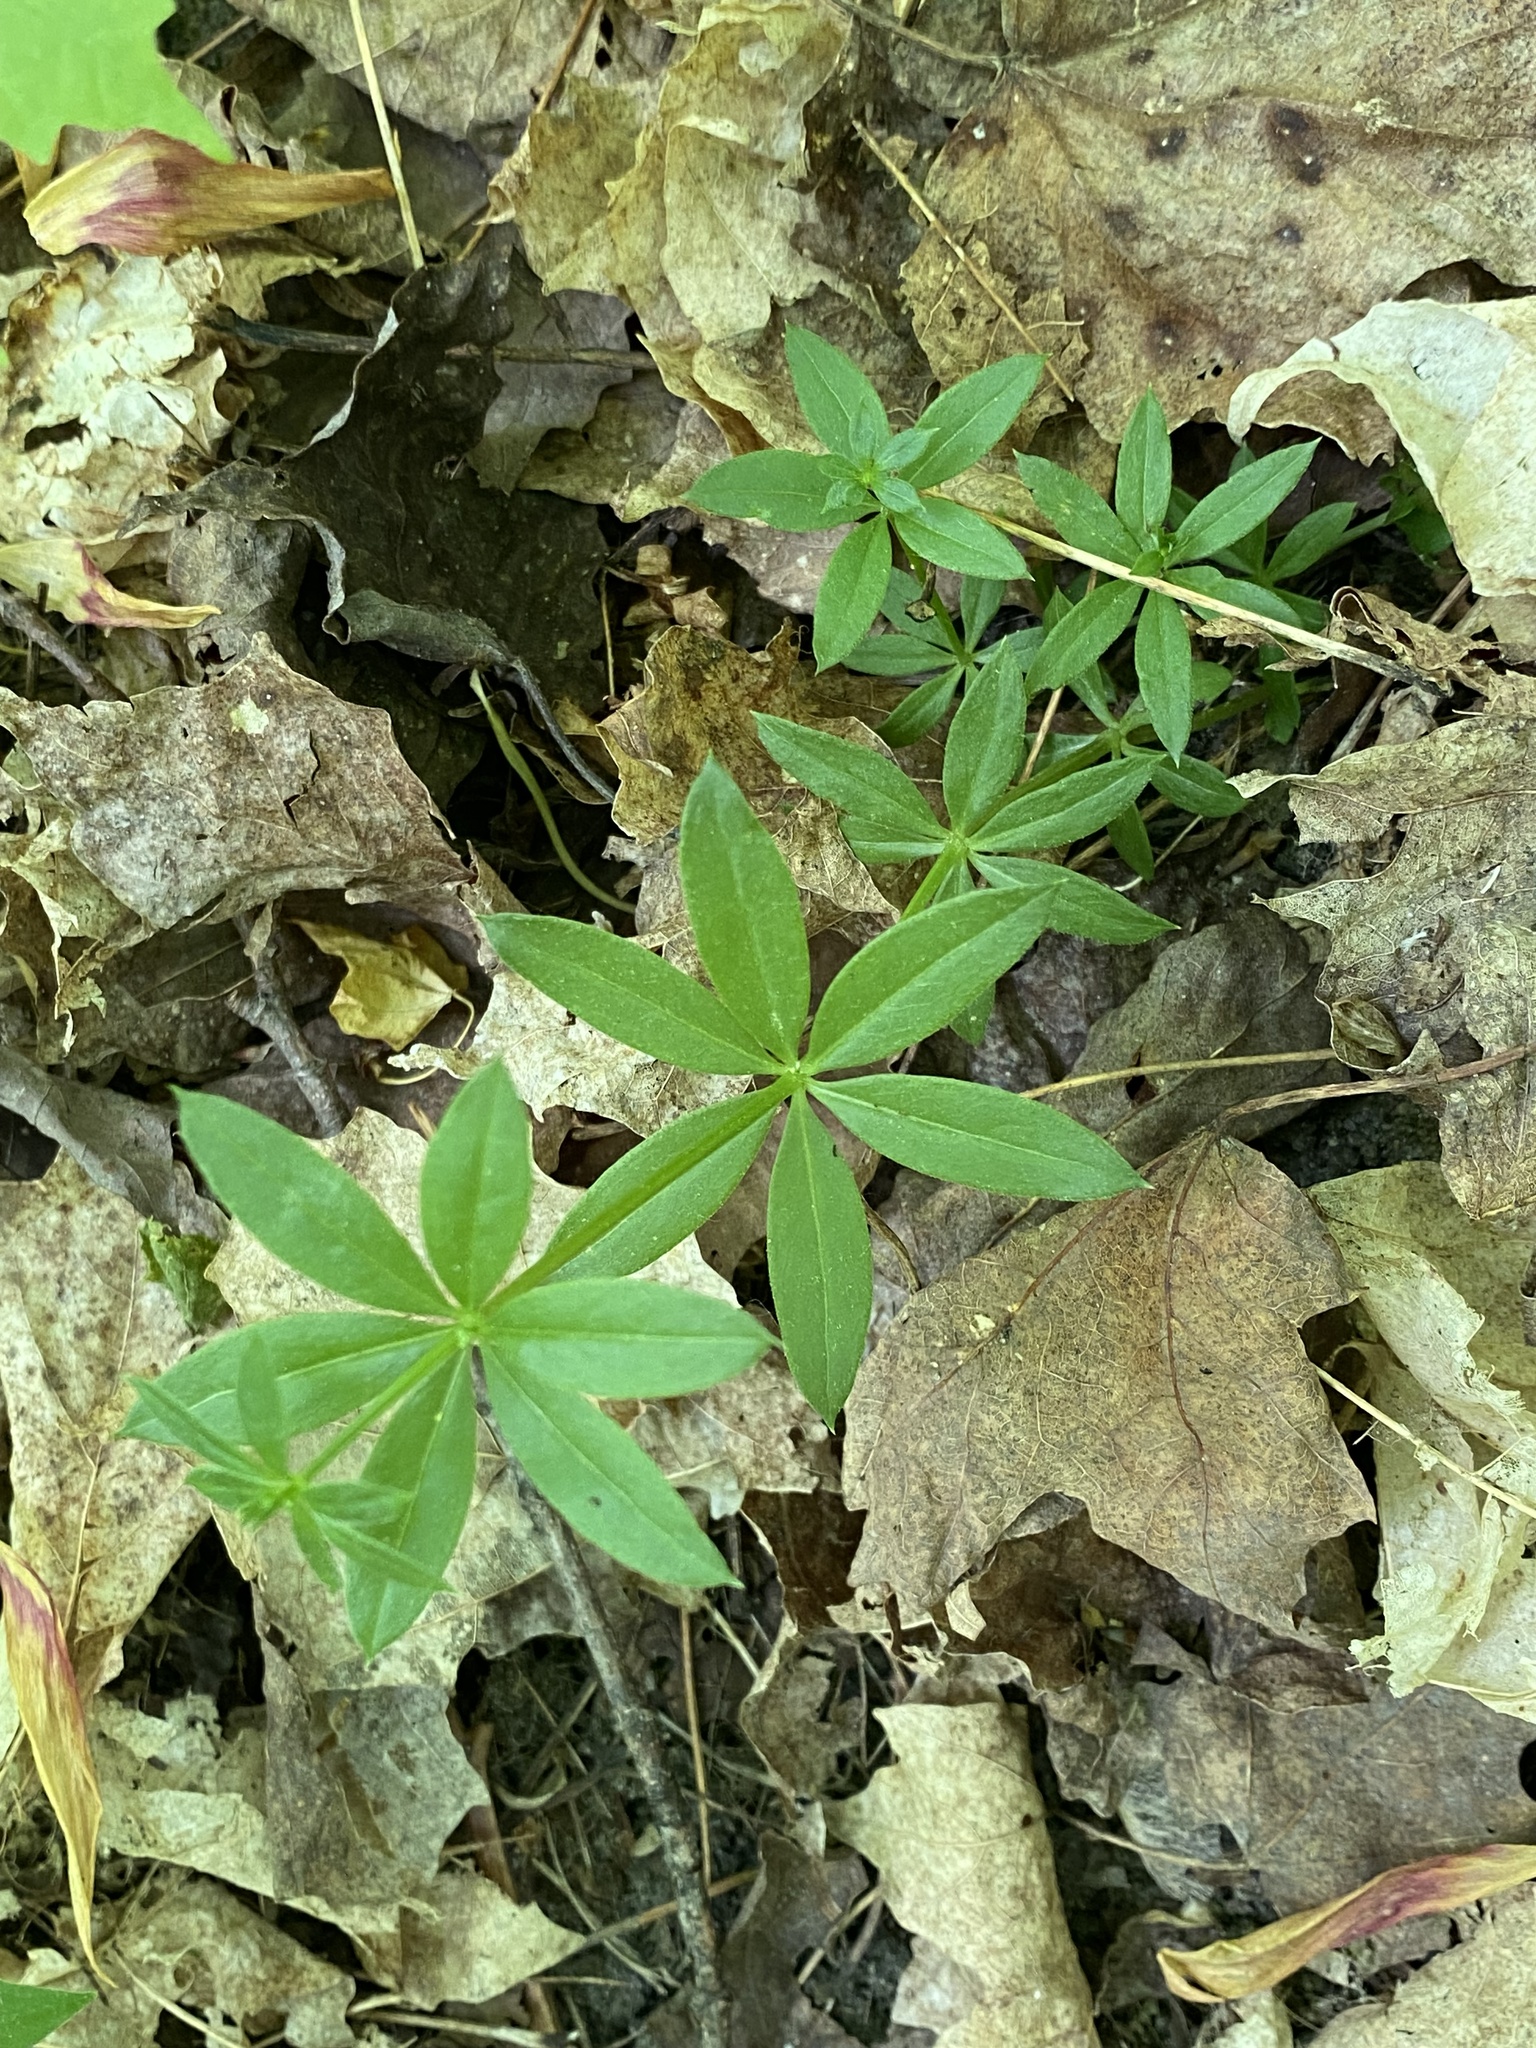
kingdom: Plantae
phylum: Tracheophyta
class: Magnoliopsida
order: Gentianales
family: Rubiaceae
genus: Galium
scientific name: Galium triflorum
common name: Fragrant bedstraw
